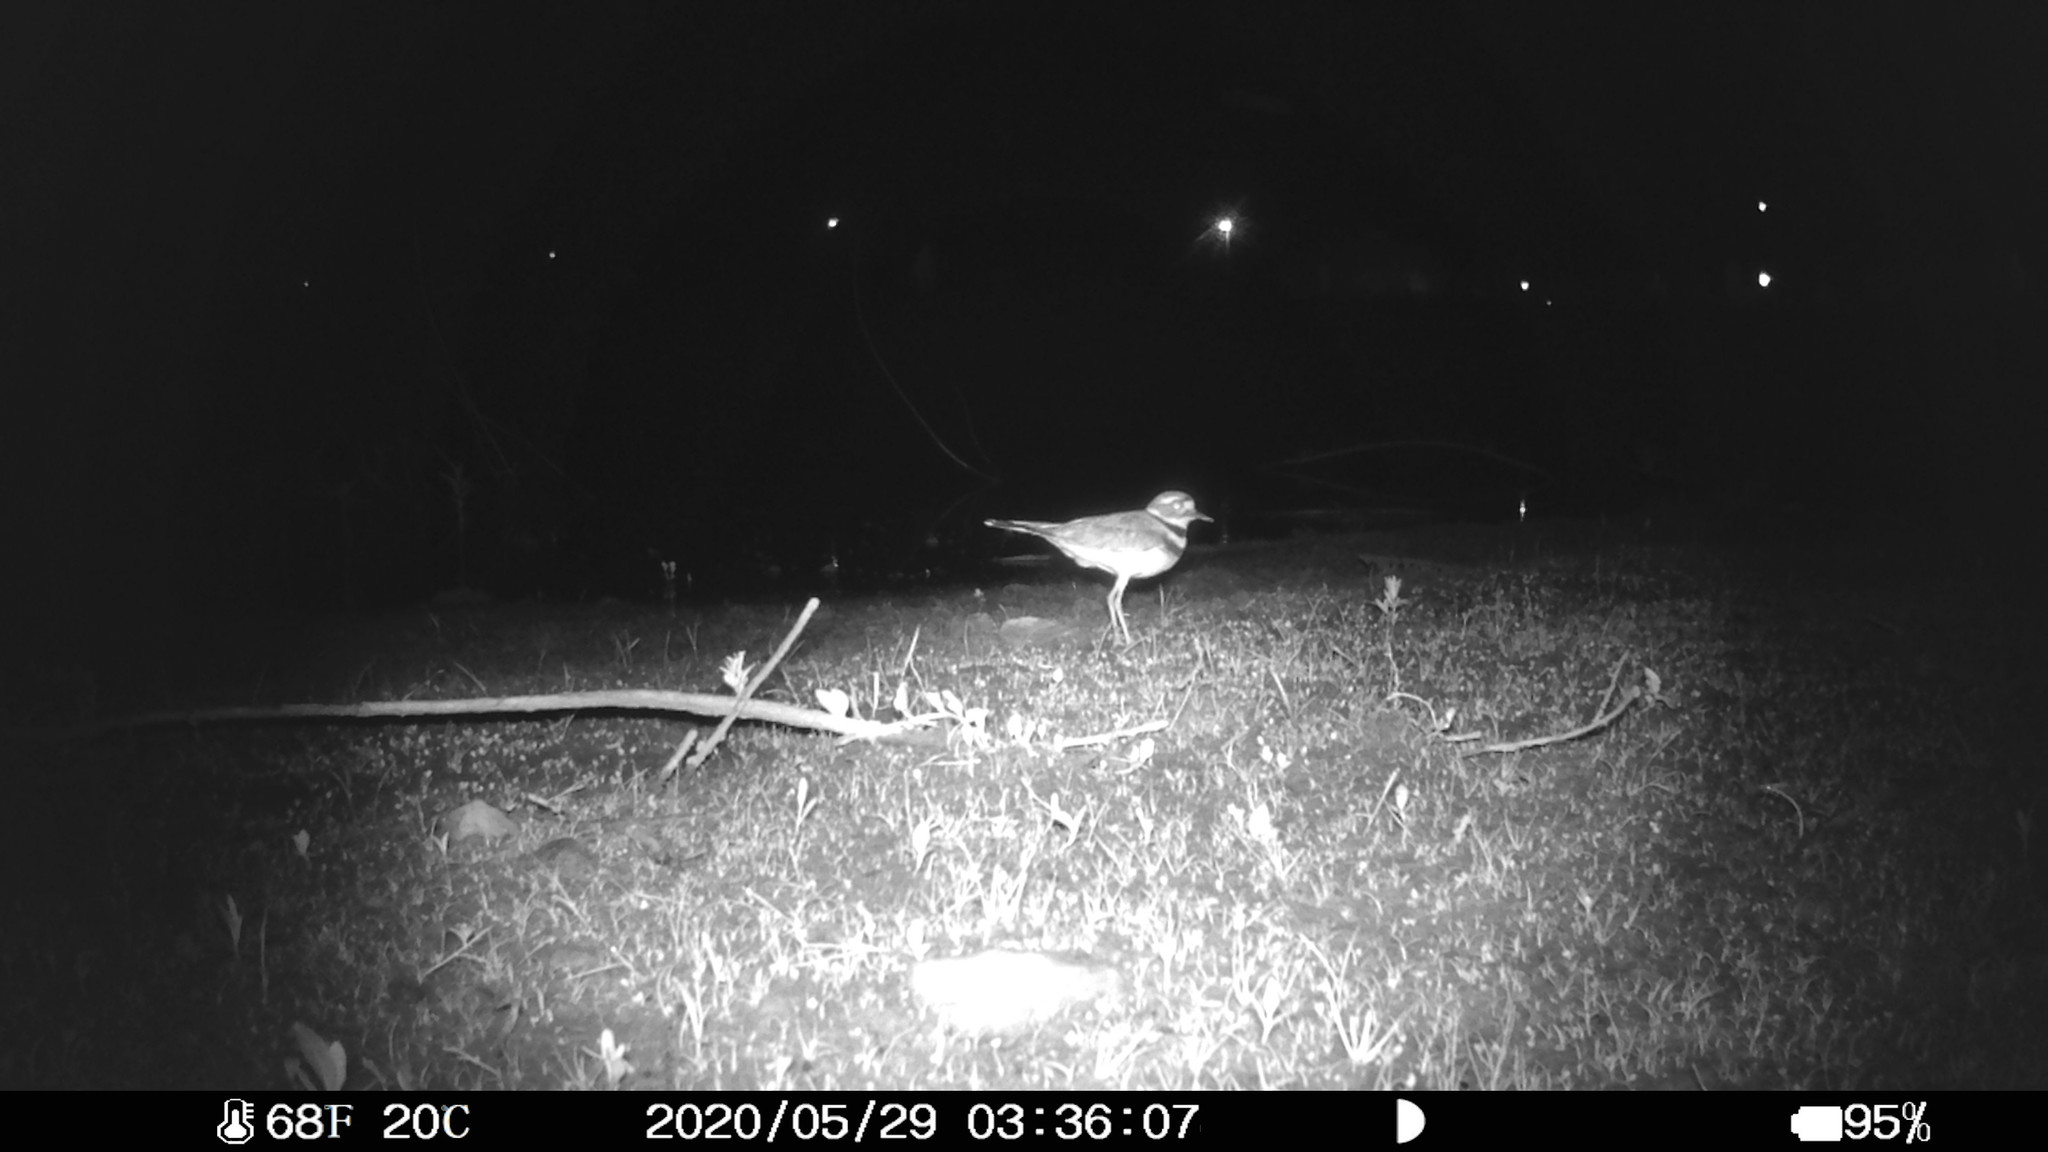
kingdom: Animalia
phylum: Chordata
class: Aves
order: Charadriiformes
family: Charadriidae
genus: Charadrius
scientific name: Charadrius vociferus
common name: Killdeer
